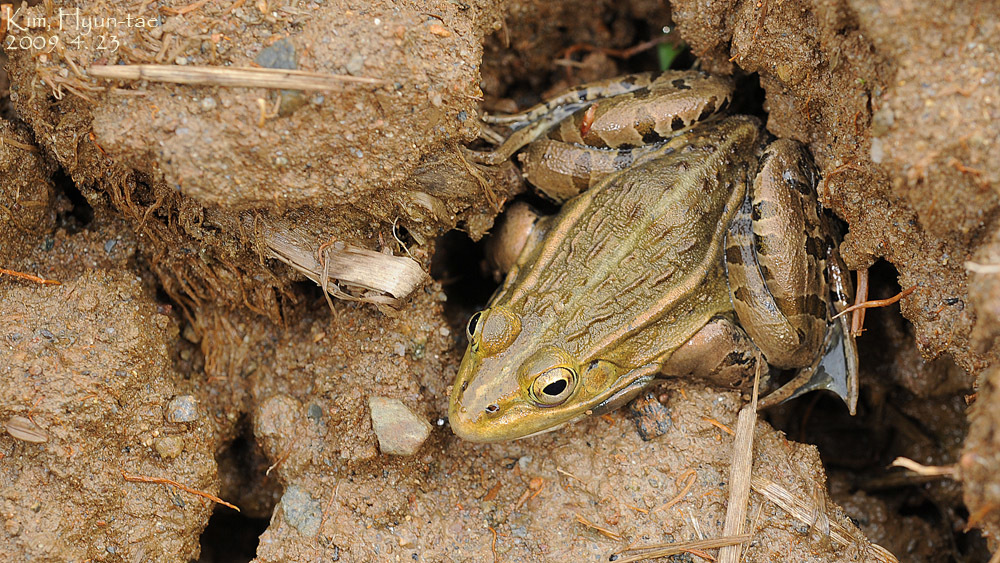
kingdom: Animalia
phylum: Chordata
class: Amphibia
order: Anura
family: Ranidae
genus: Pelophylax
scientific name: Pelophylax nigromaculatus
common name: Black-spotted pond frog
